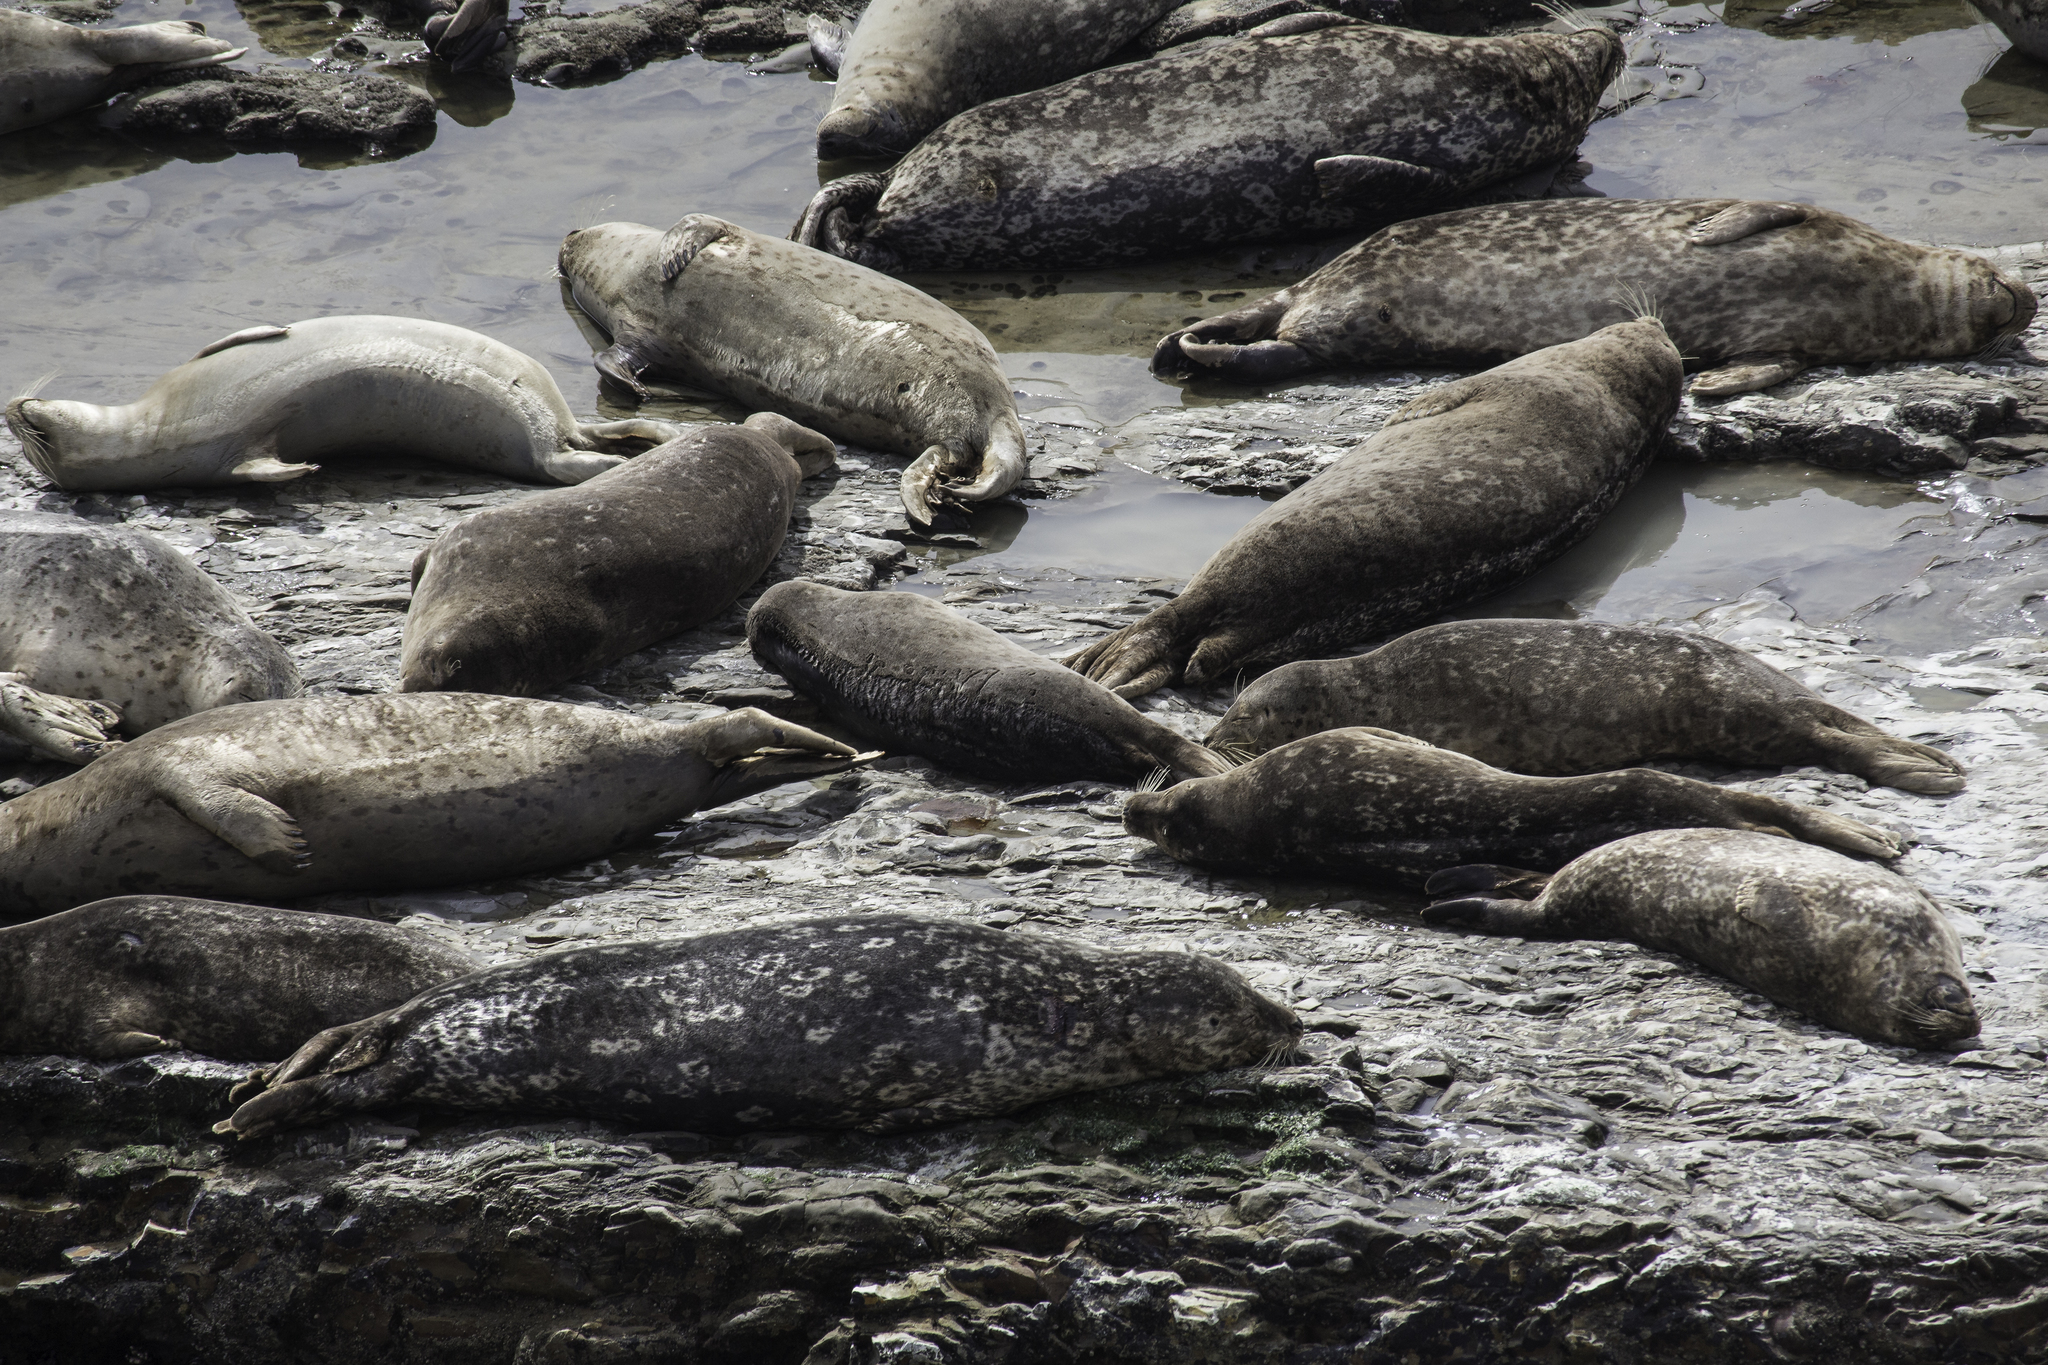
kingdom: Animalia
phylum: Chordata
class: Mammalia
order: Carnivora
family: Phocidae
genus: Phoca
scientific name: Phoca vitulina
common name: Harbor seal
